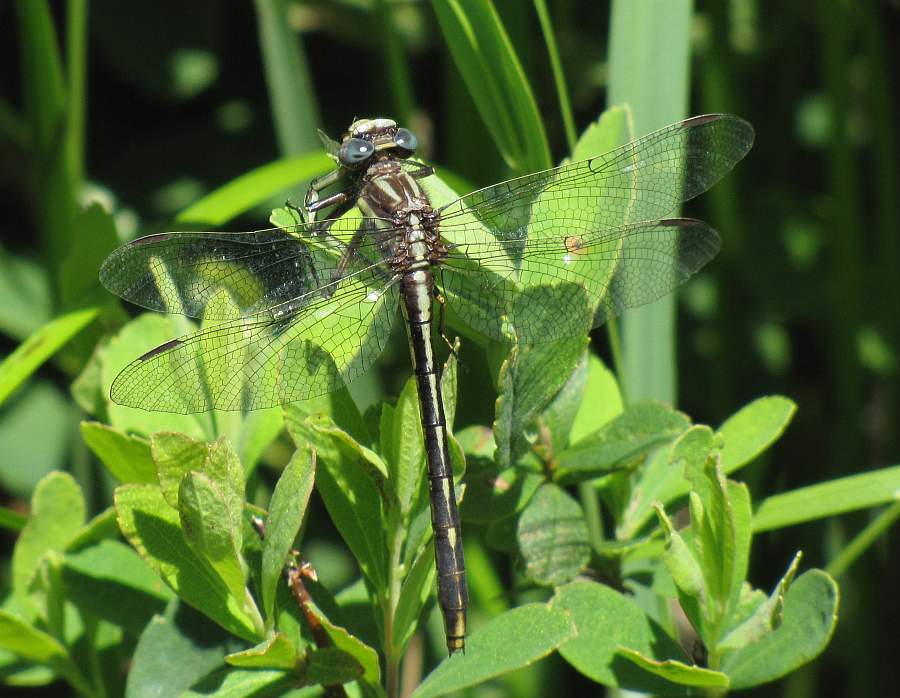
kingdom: Animalia
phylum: Arthropoda
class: Insecta
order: Odonata
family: Gomphidae
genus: Phanogomphus
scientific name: Phanogomphus spicatus
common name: Dusky clubtail
